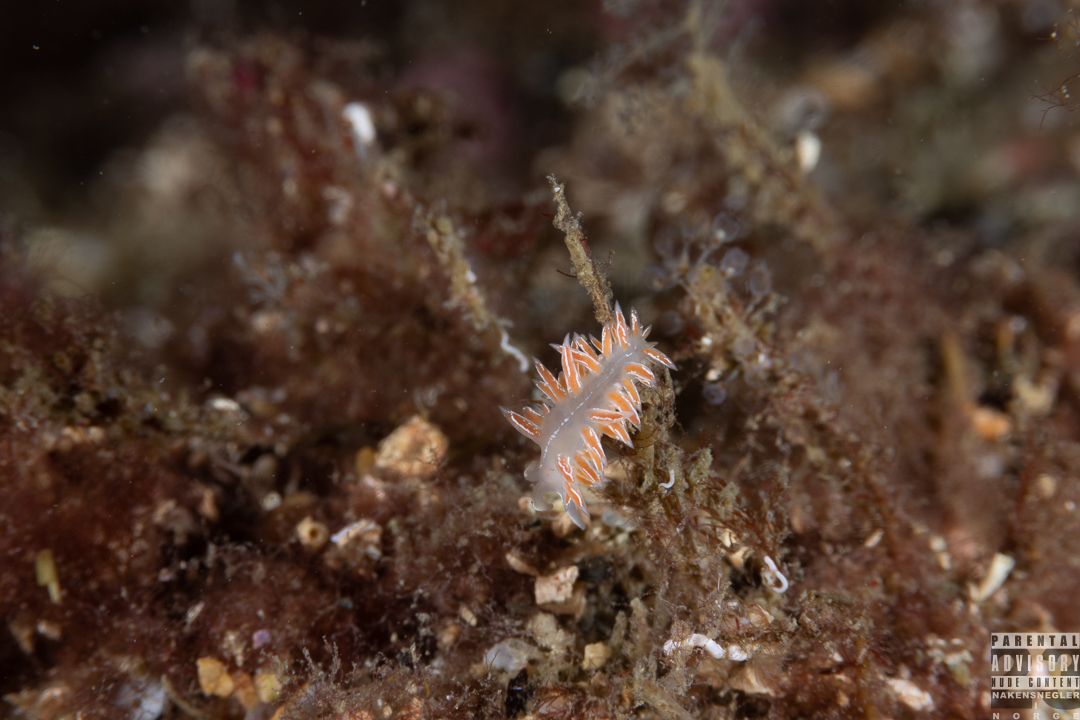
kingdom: Animalia
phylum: Mollusca
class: Gastropoda
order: Nudibranchia
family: Coryphellidae
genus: Coryphella
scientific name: Coryphella chriskaugei
